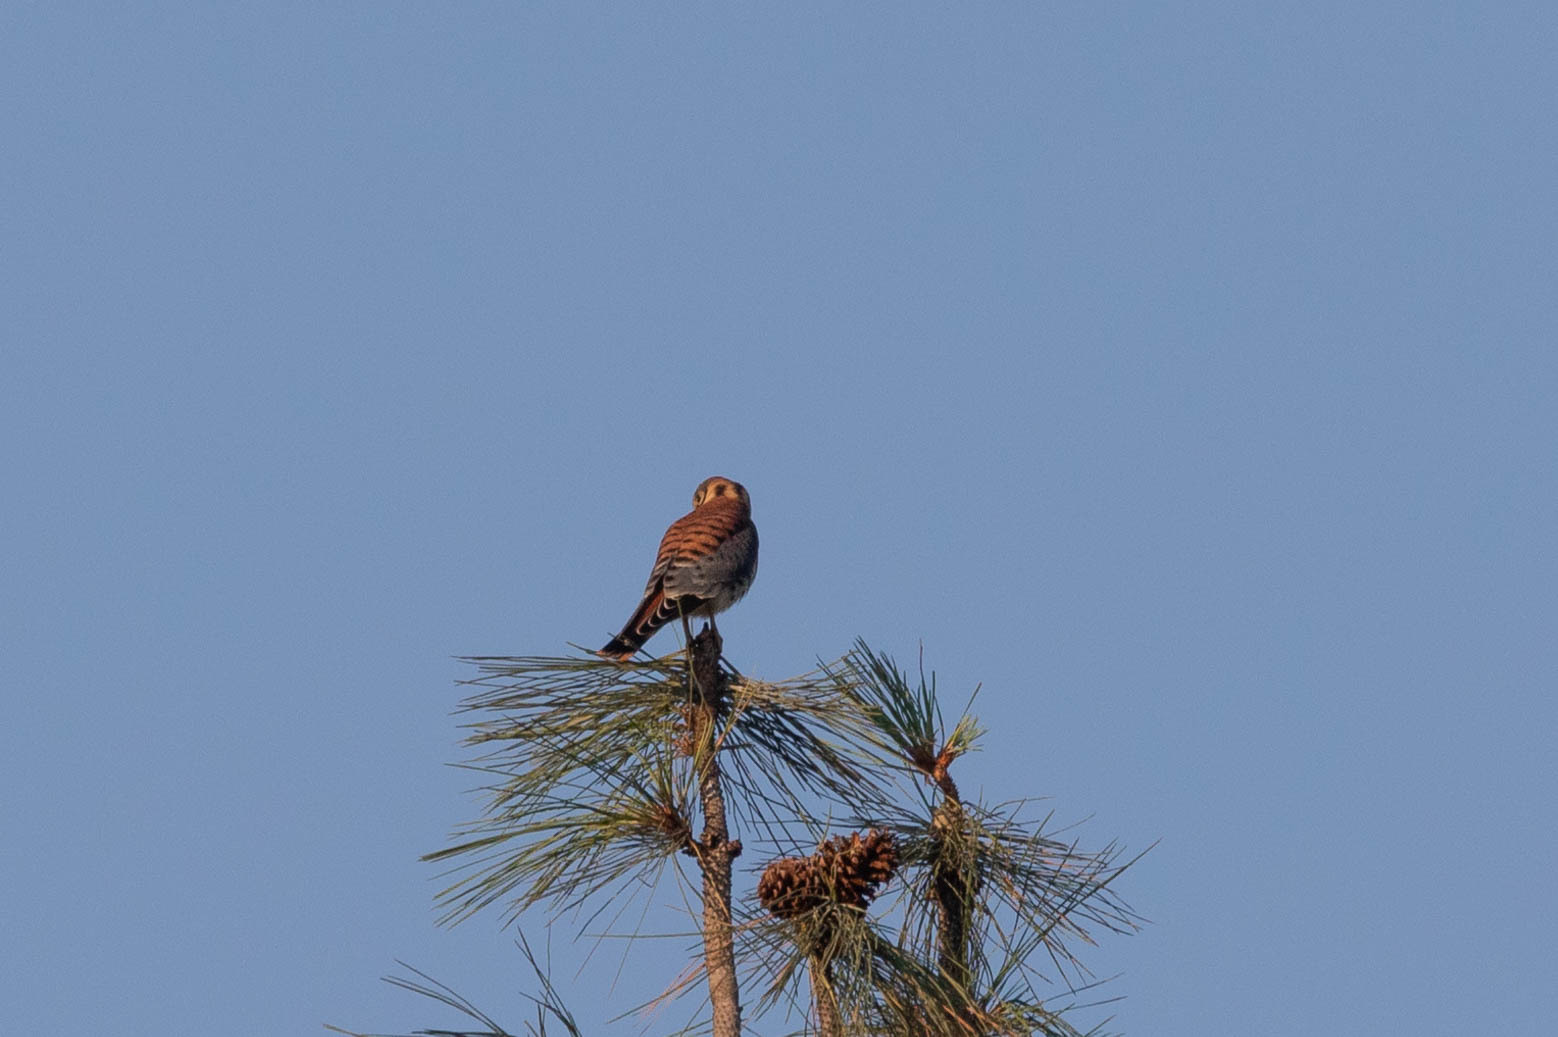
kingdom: Animalia
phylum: Chordata
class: Aves
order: Falconiformes
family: Falconidae
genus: Falco
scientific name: Falco sparverius
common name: American kestrel
